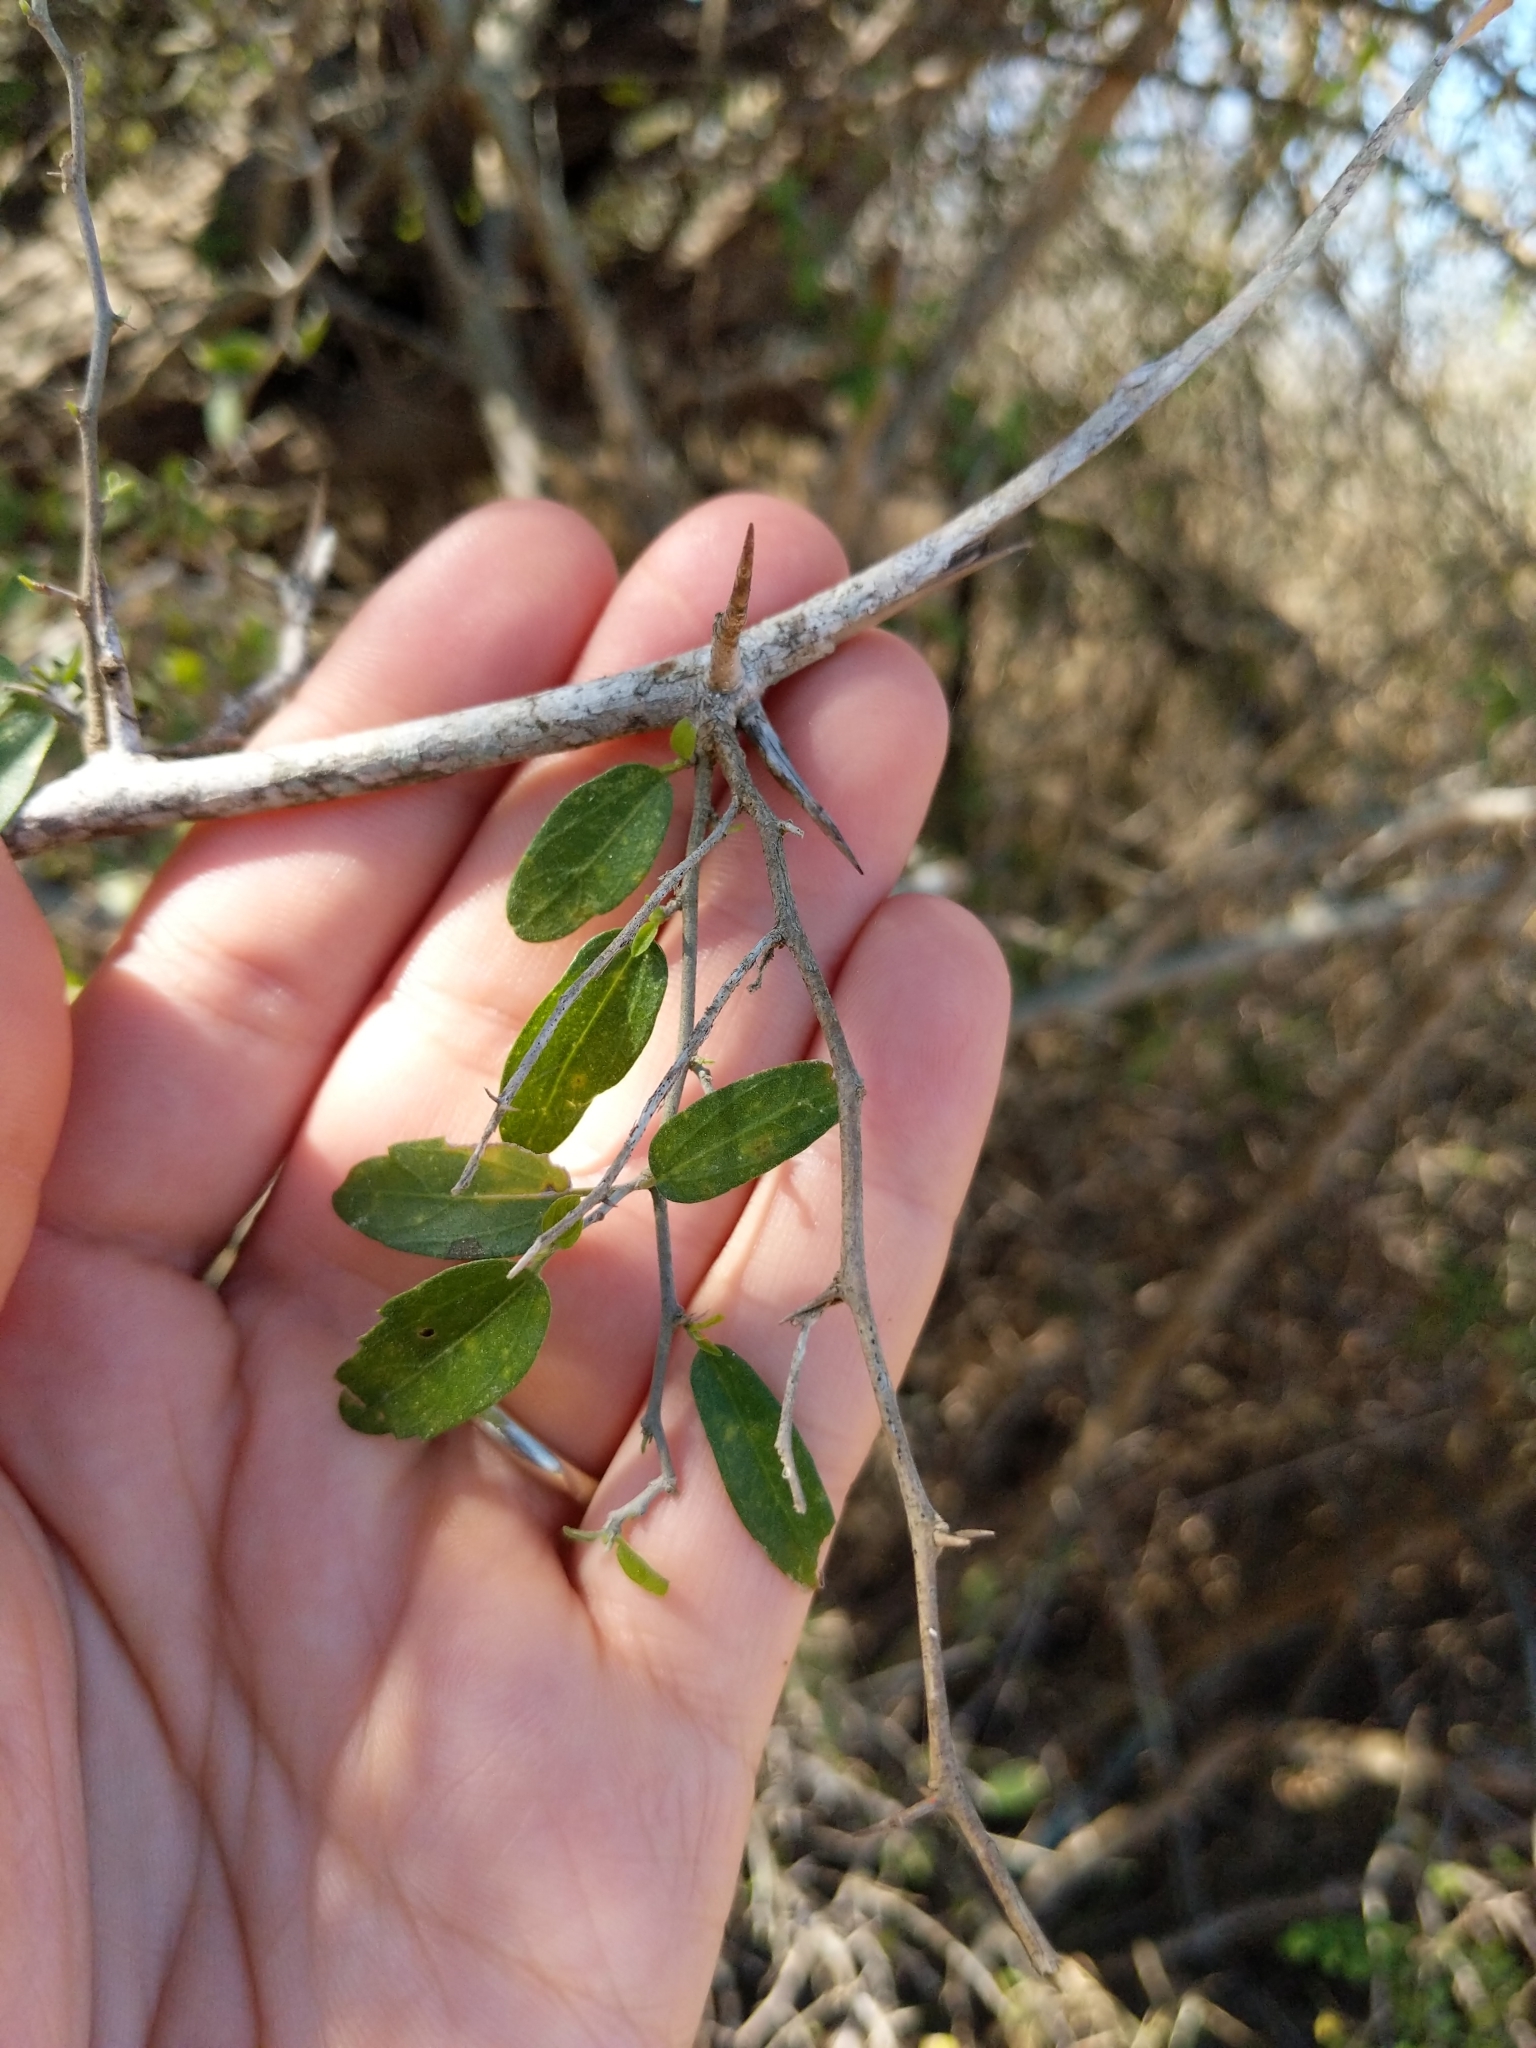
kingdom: Plantae
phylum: Tracheophyta
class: Magnoliopsida
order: Rosales
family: Cannabaceae
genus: Celtis
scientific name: Celtis pallida
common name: Desert hackberry
